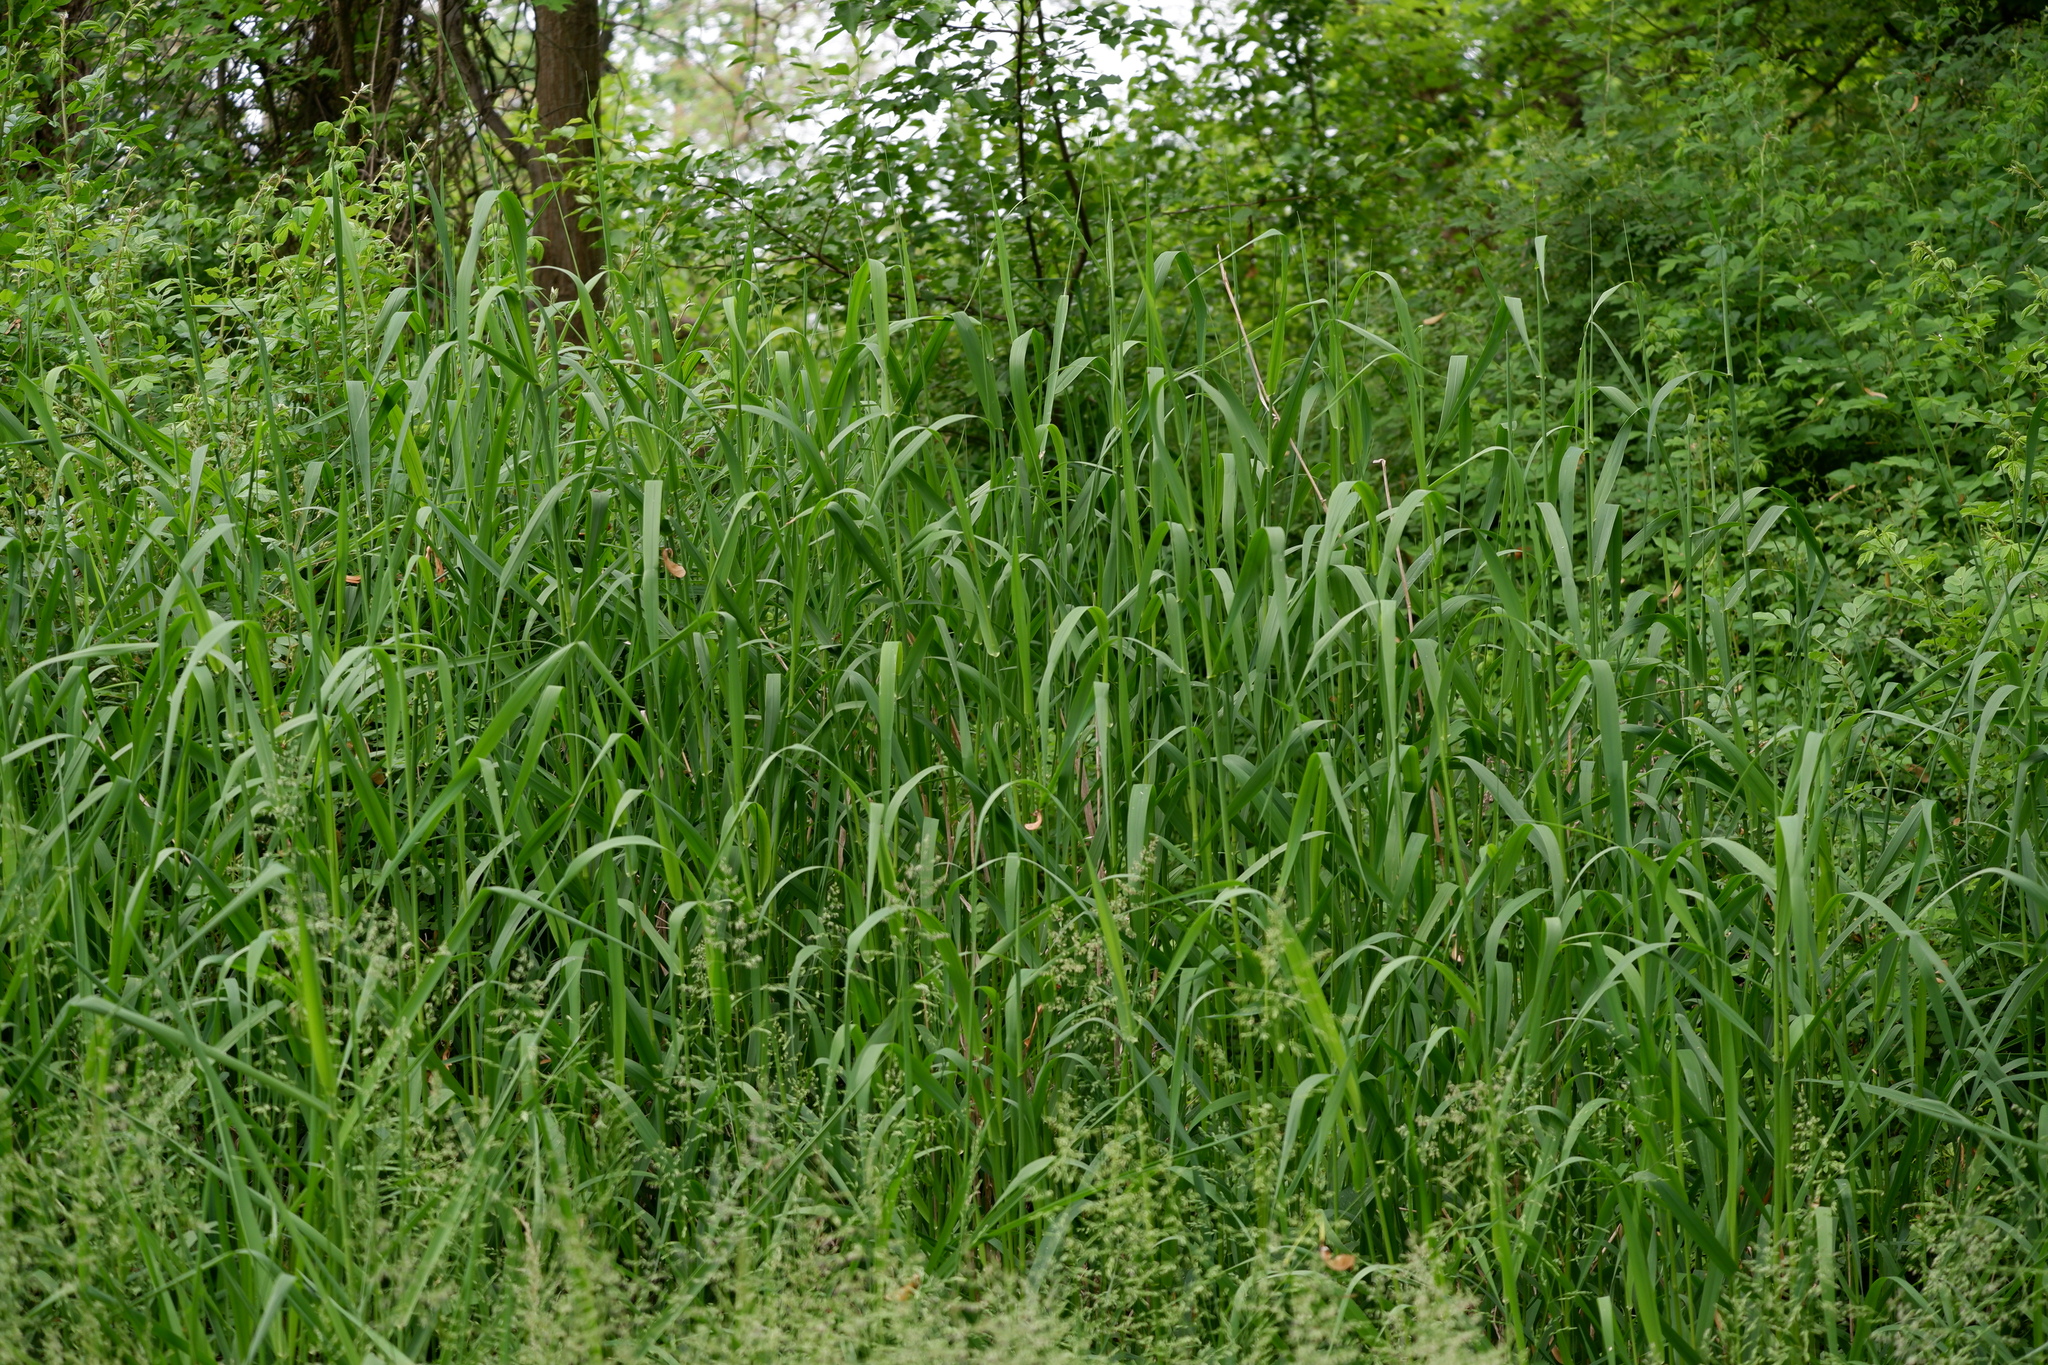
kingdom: Plantae
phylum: Tracheophyta
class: Liliopsida
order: Poales
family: Poaceae
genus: Phalaris
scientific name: Phalaris arundinacea
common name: Reed canary-grass
